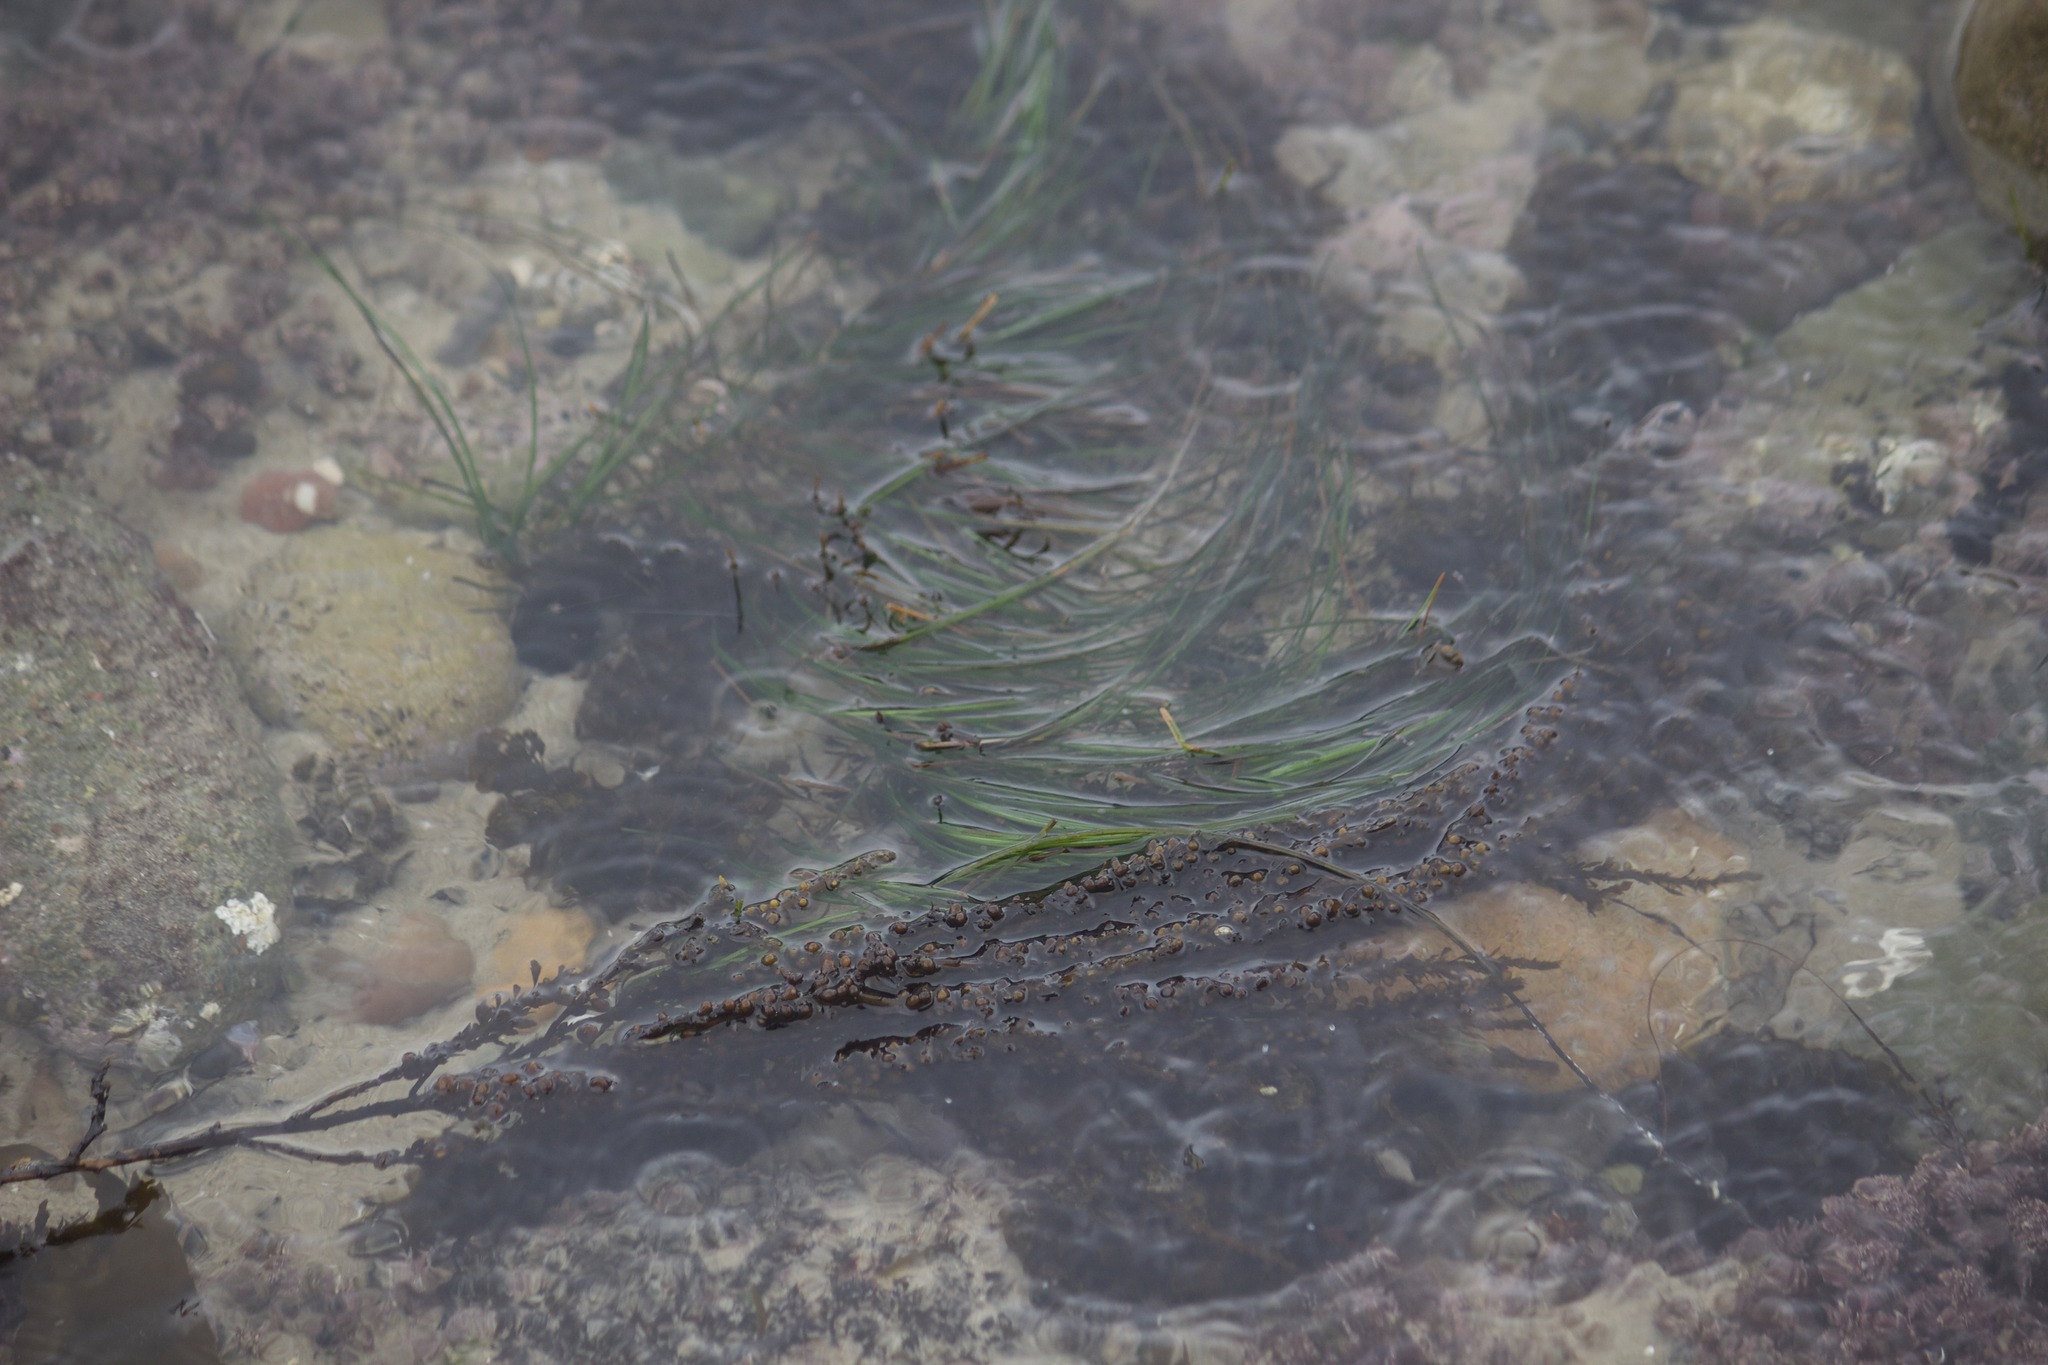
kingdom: Plantae
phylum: Tracheophyta
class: Liliopsida
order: Alismatales
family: Zosteraceae
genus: Phyllospadix
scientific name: Phyllospadix torreyi
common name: Surfgrass
